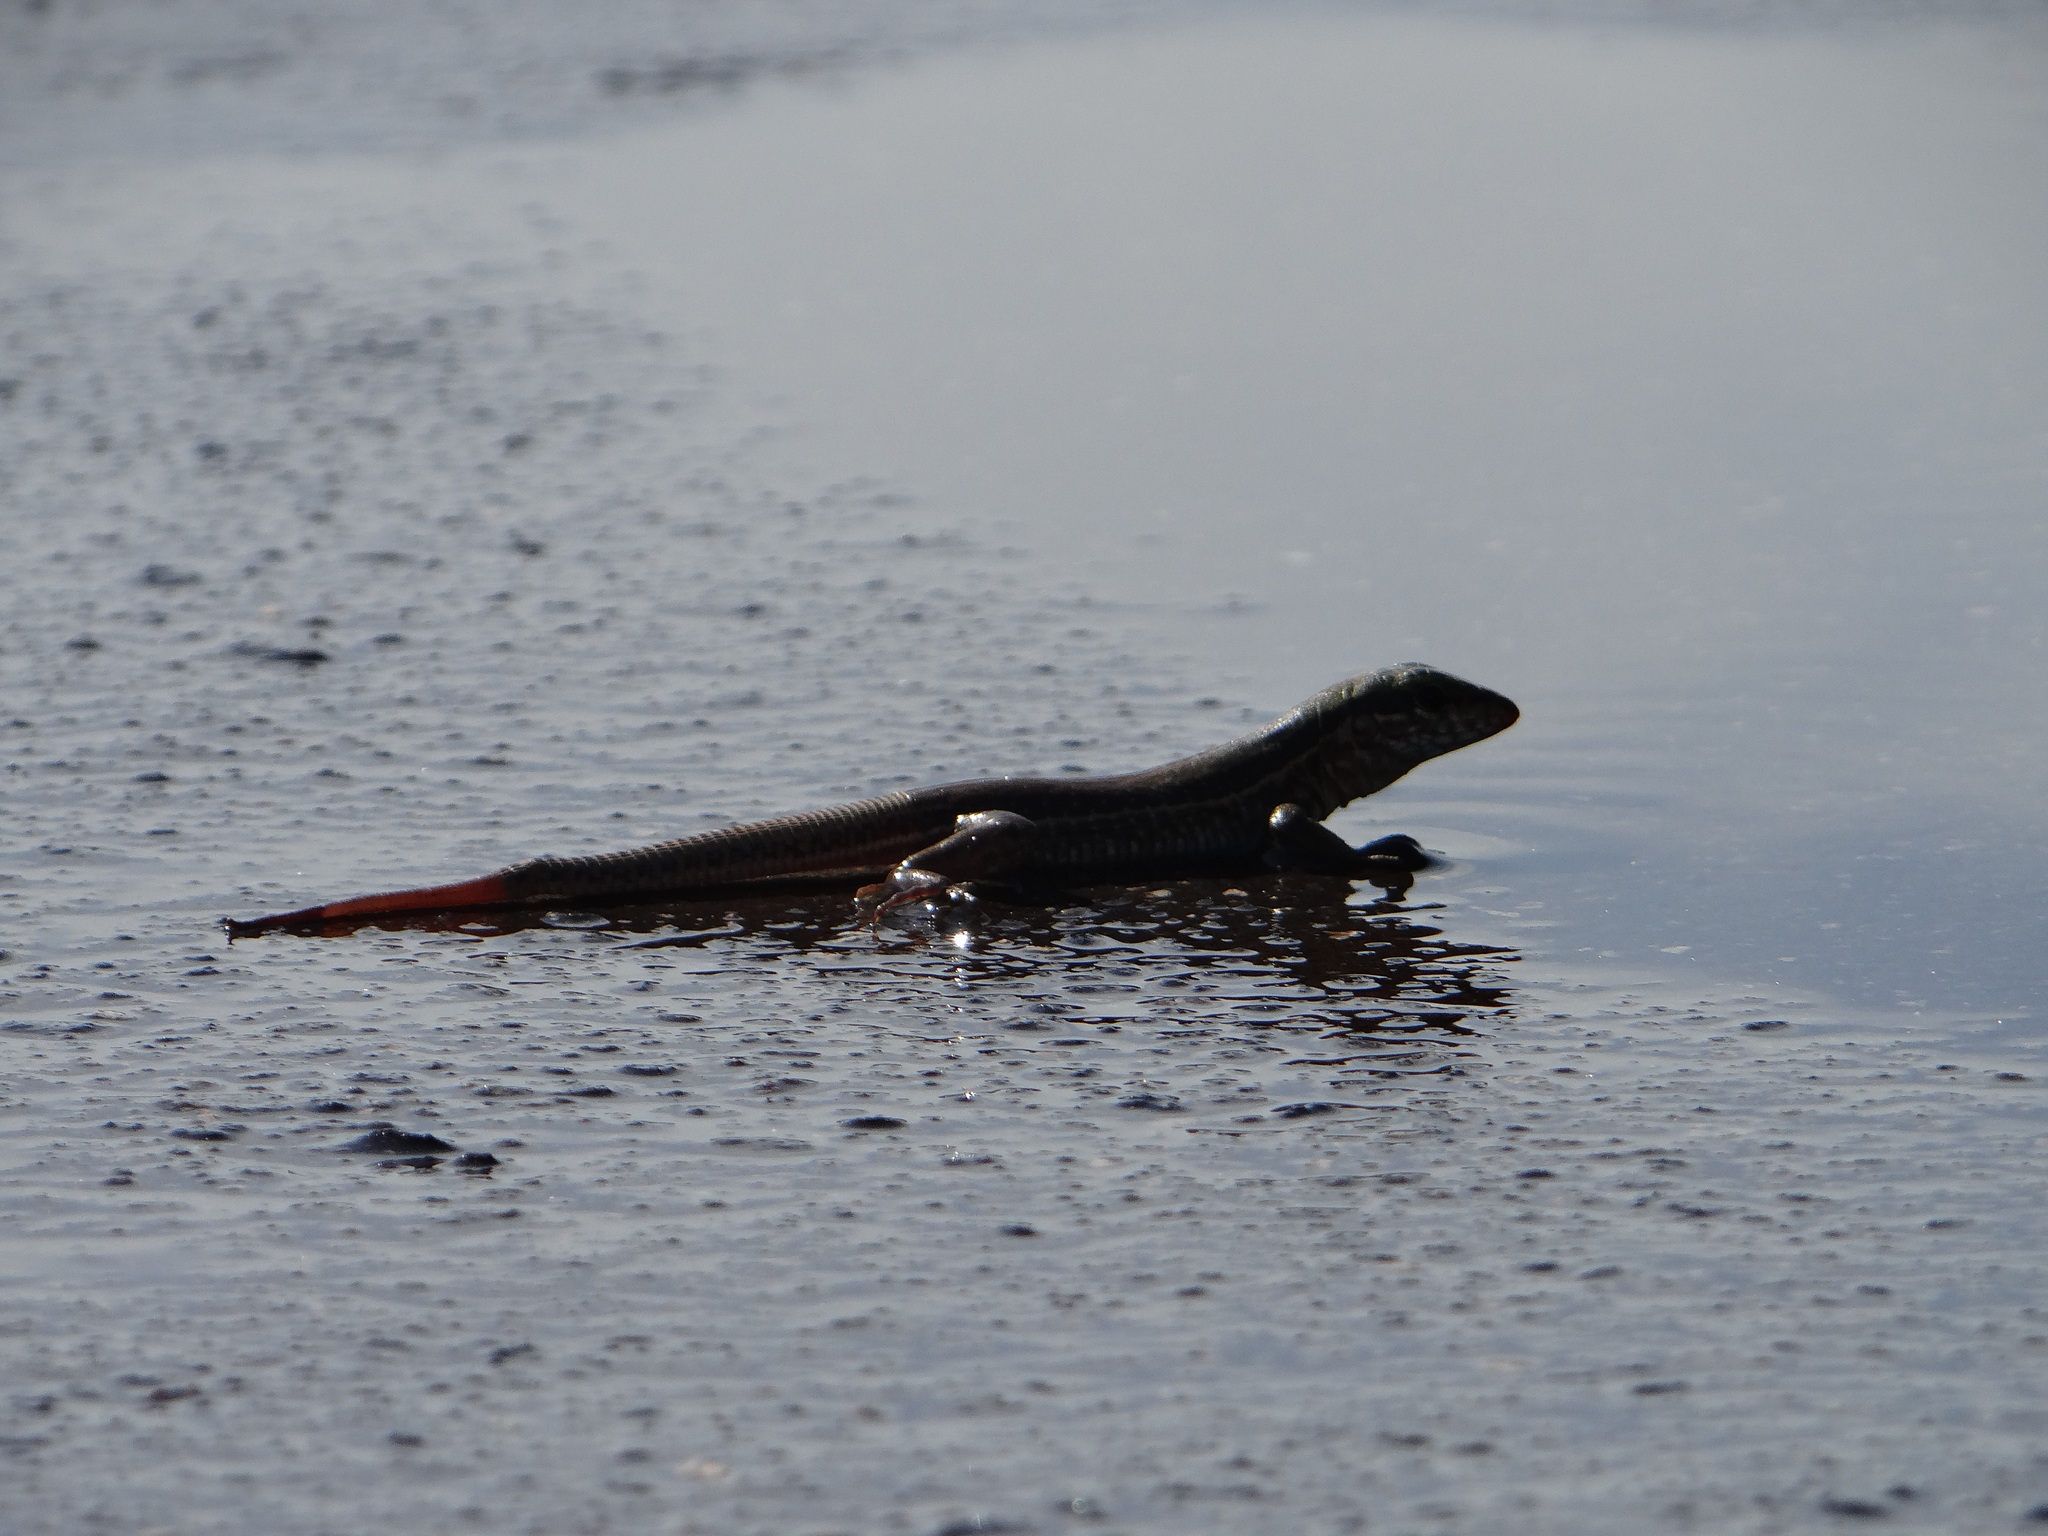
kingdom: Animalia
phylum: Chordata
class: Squamata
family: Teiidae
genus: Ameiva
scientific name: Ameiva ameiva
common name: Giant ameiva
